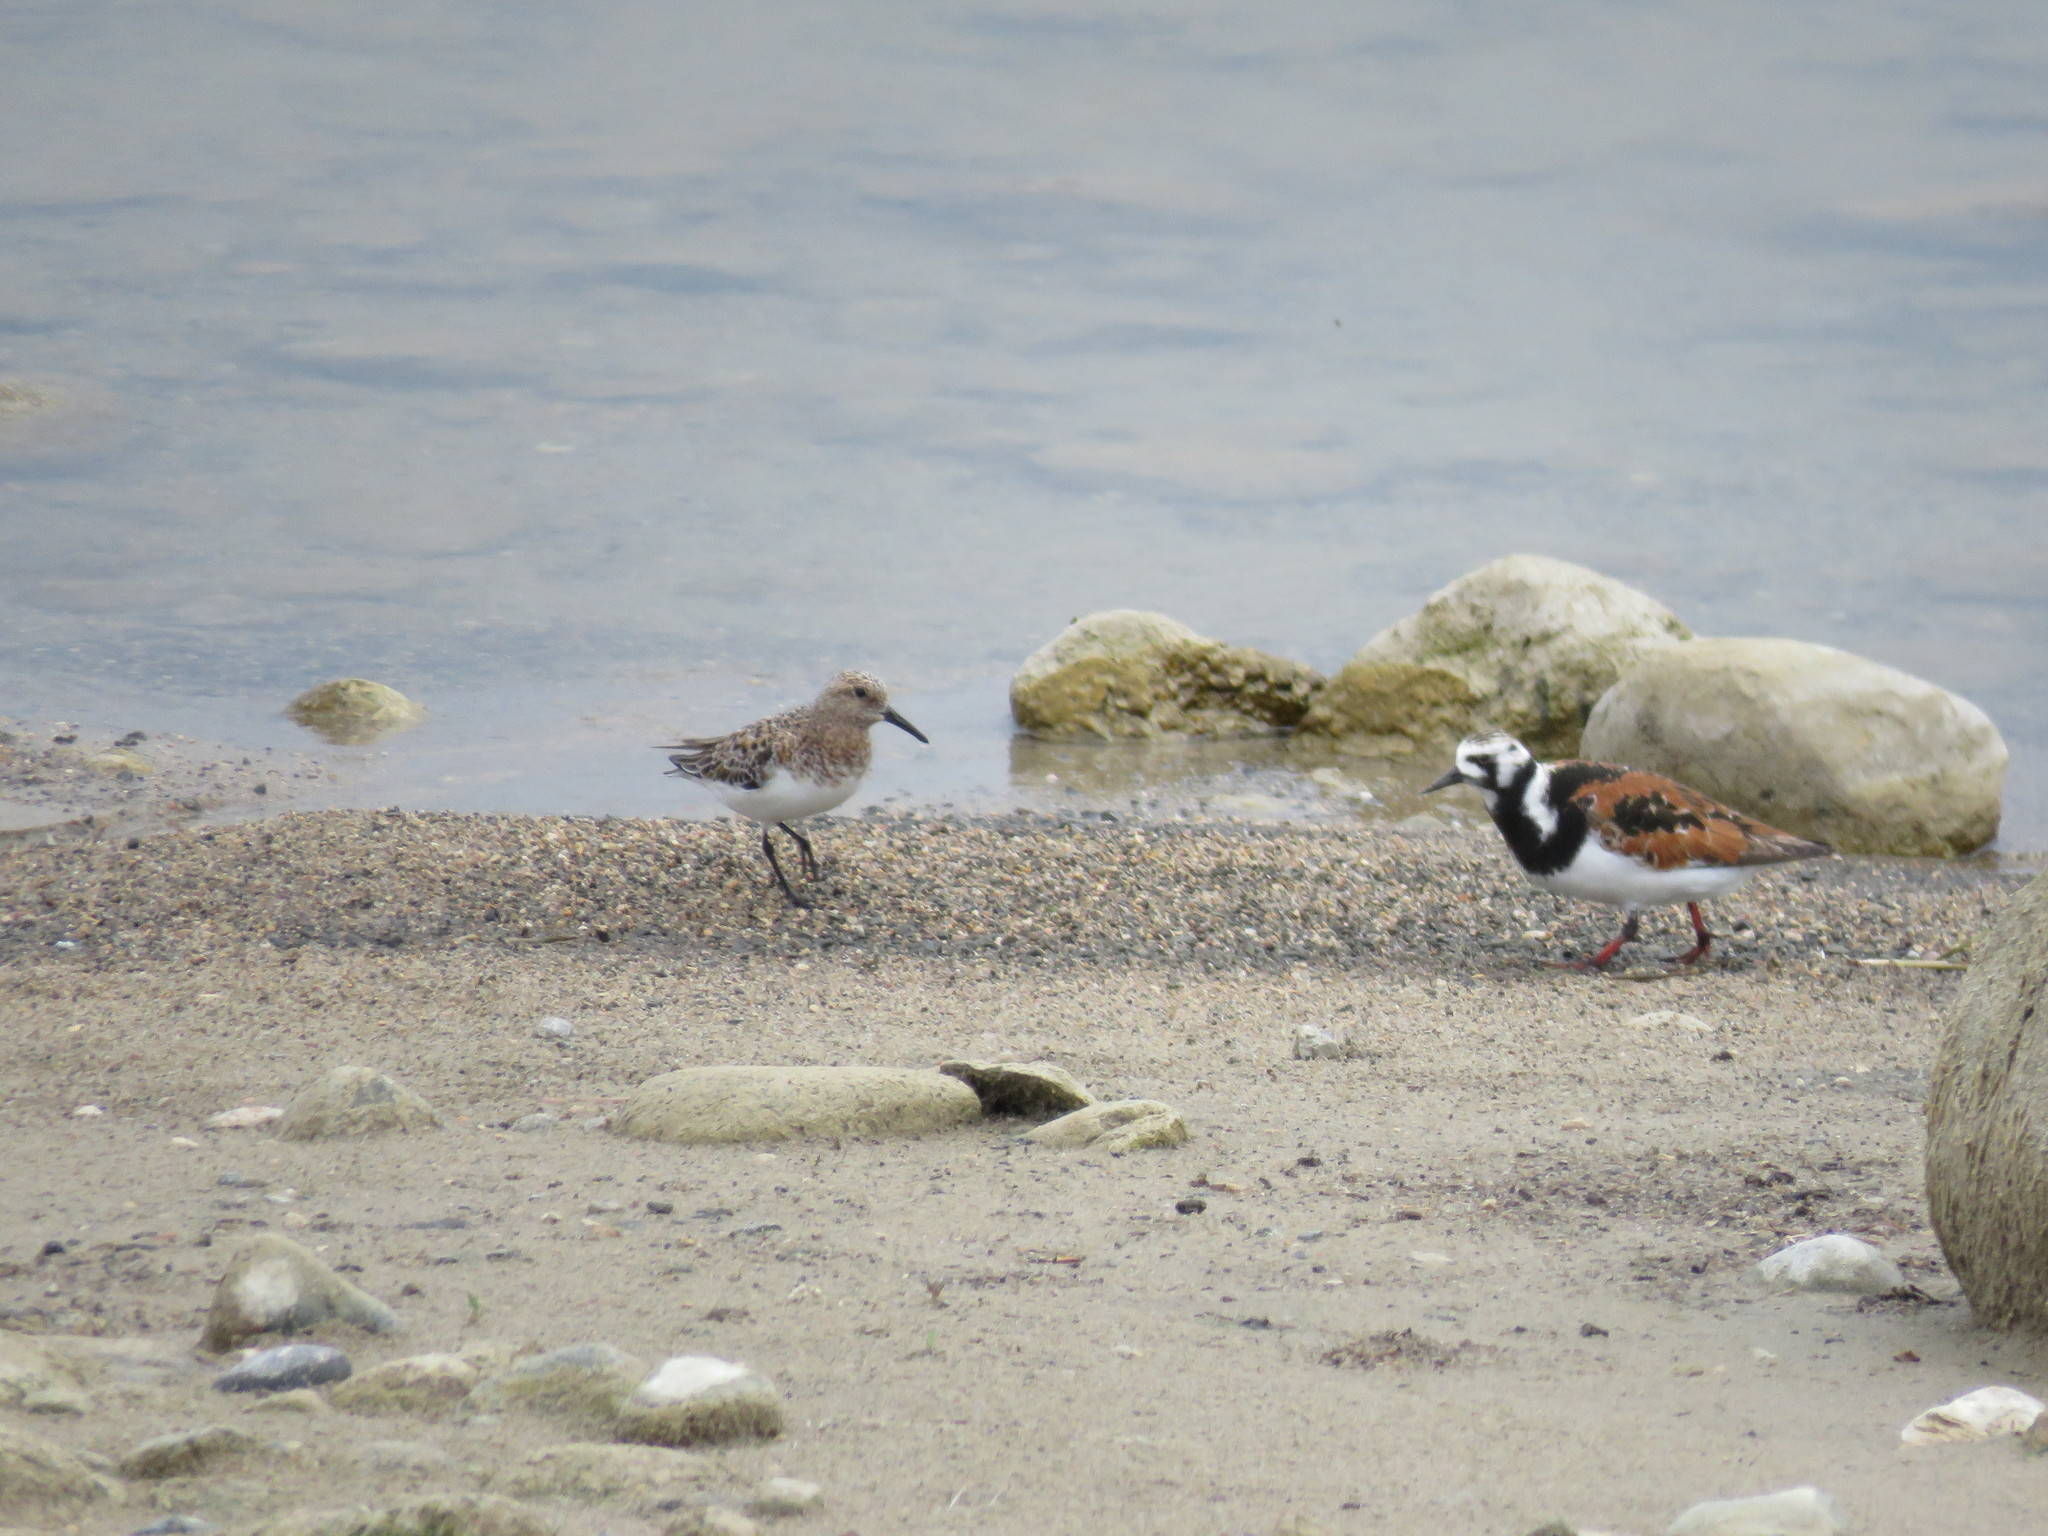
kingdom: Animalia
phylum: Chordata
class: Aves
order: Charadriiformes
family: Scolopacidae
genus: Calidris
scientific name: Calidris alba
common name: Sanderling
